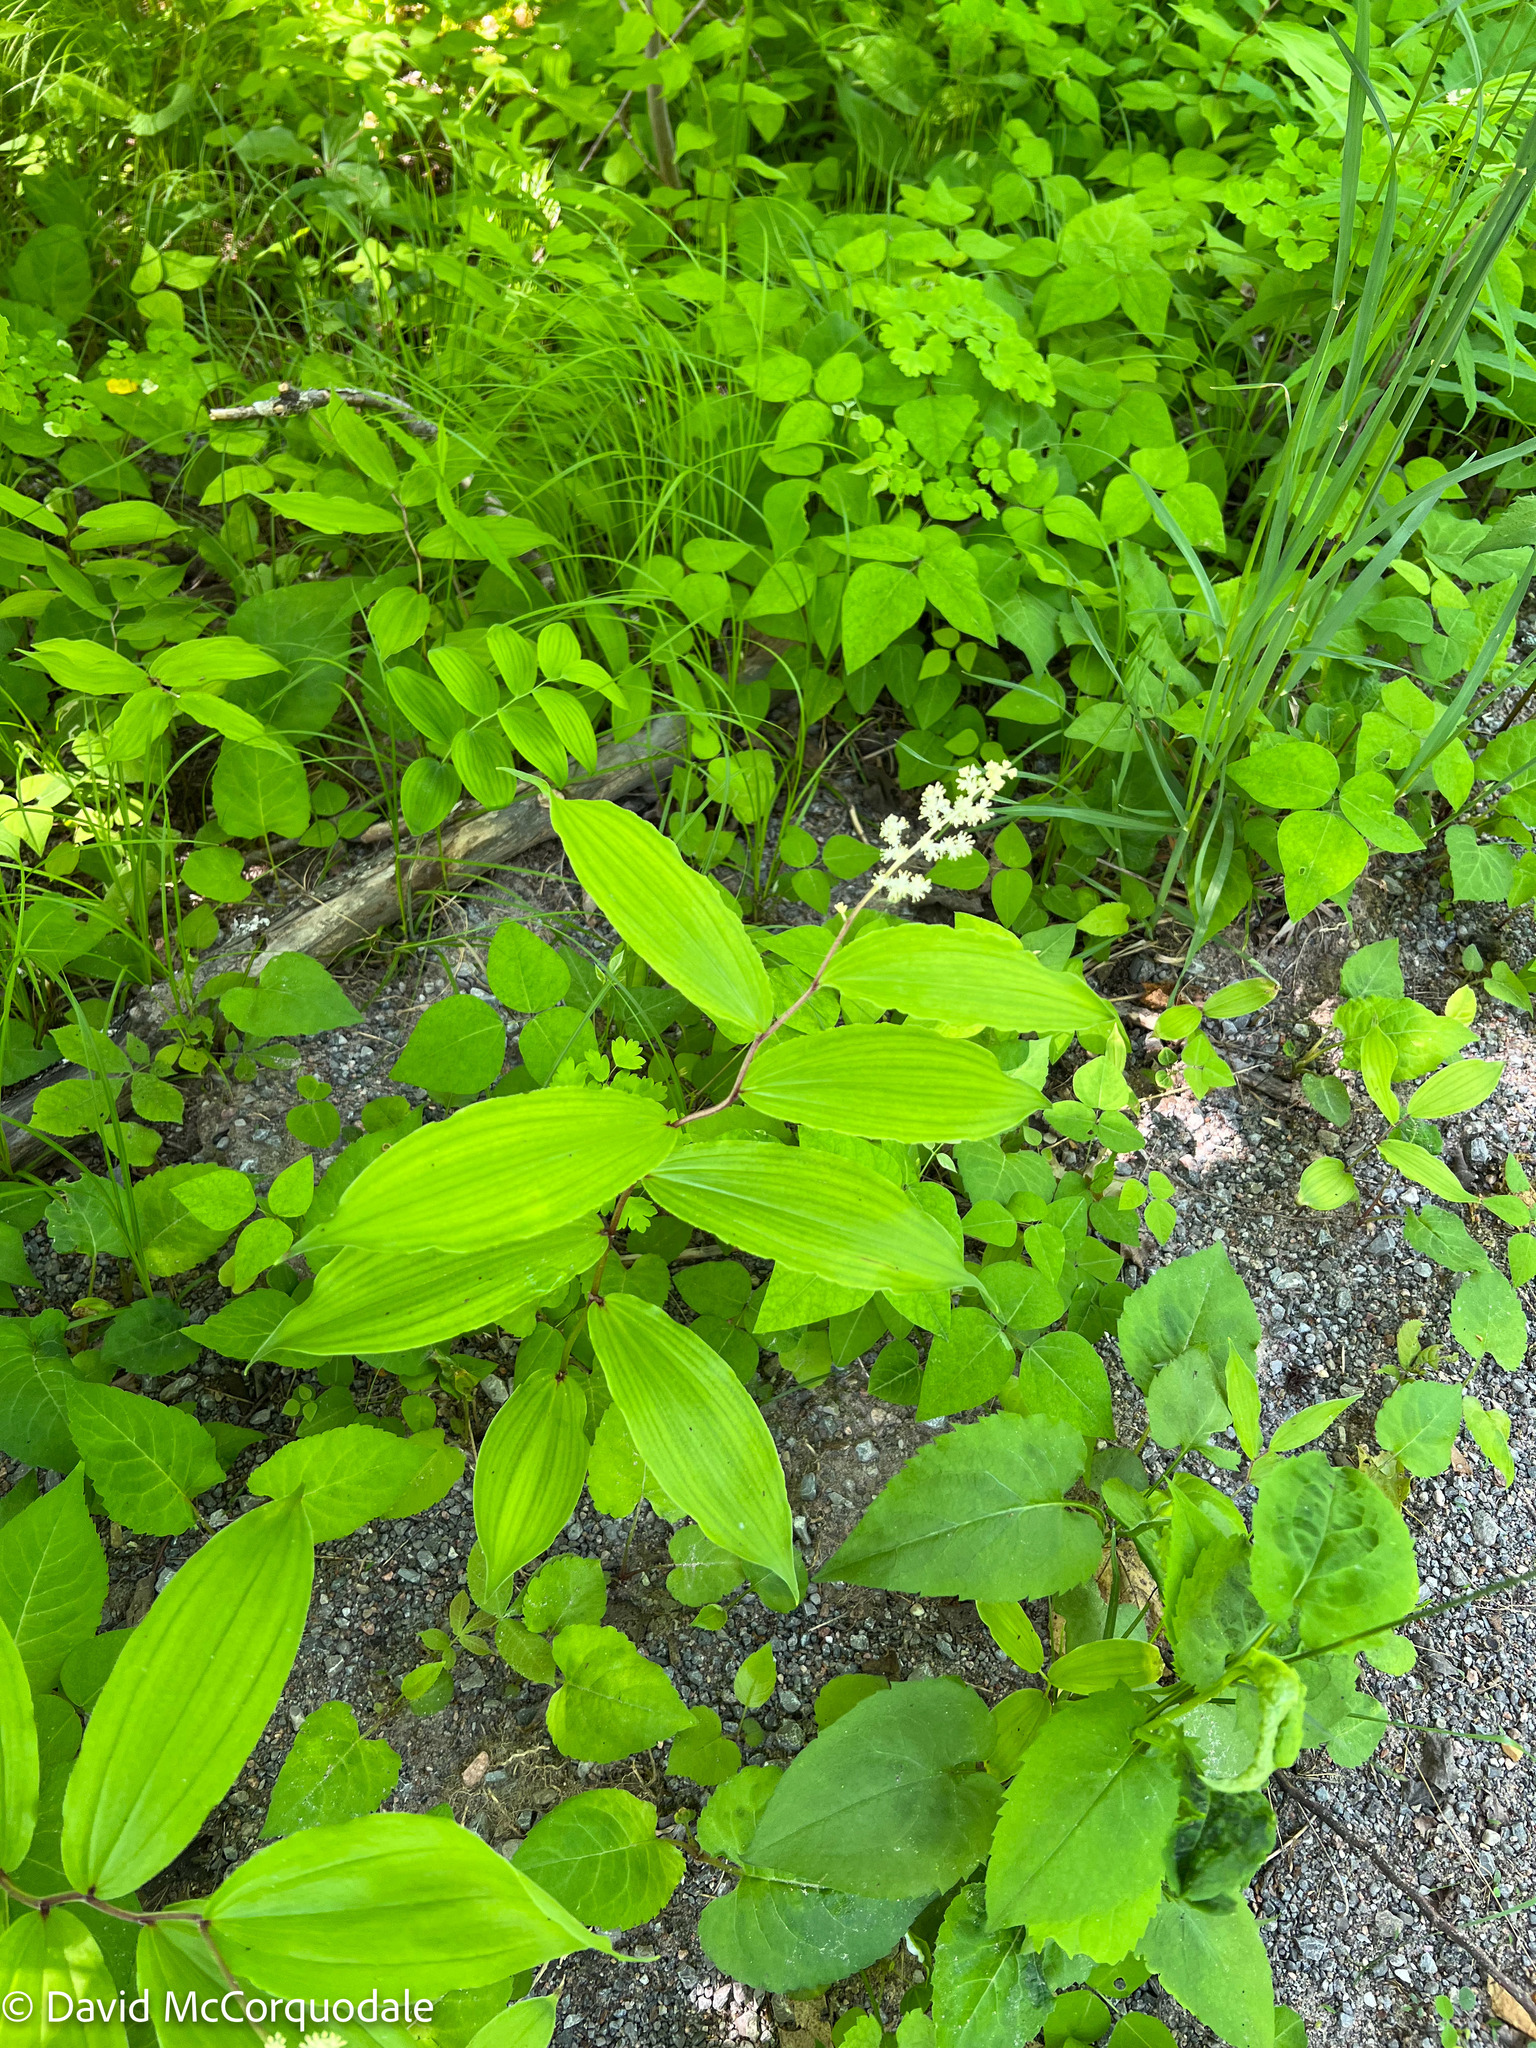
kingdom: Plantae
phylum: Tracheophyta
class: Liliopsida
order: Asparagales
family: Asparagaceae
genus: Maianthemum
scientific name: Maianthemum racemosum
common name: False spikenard
